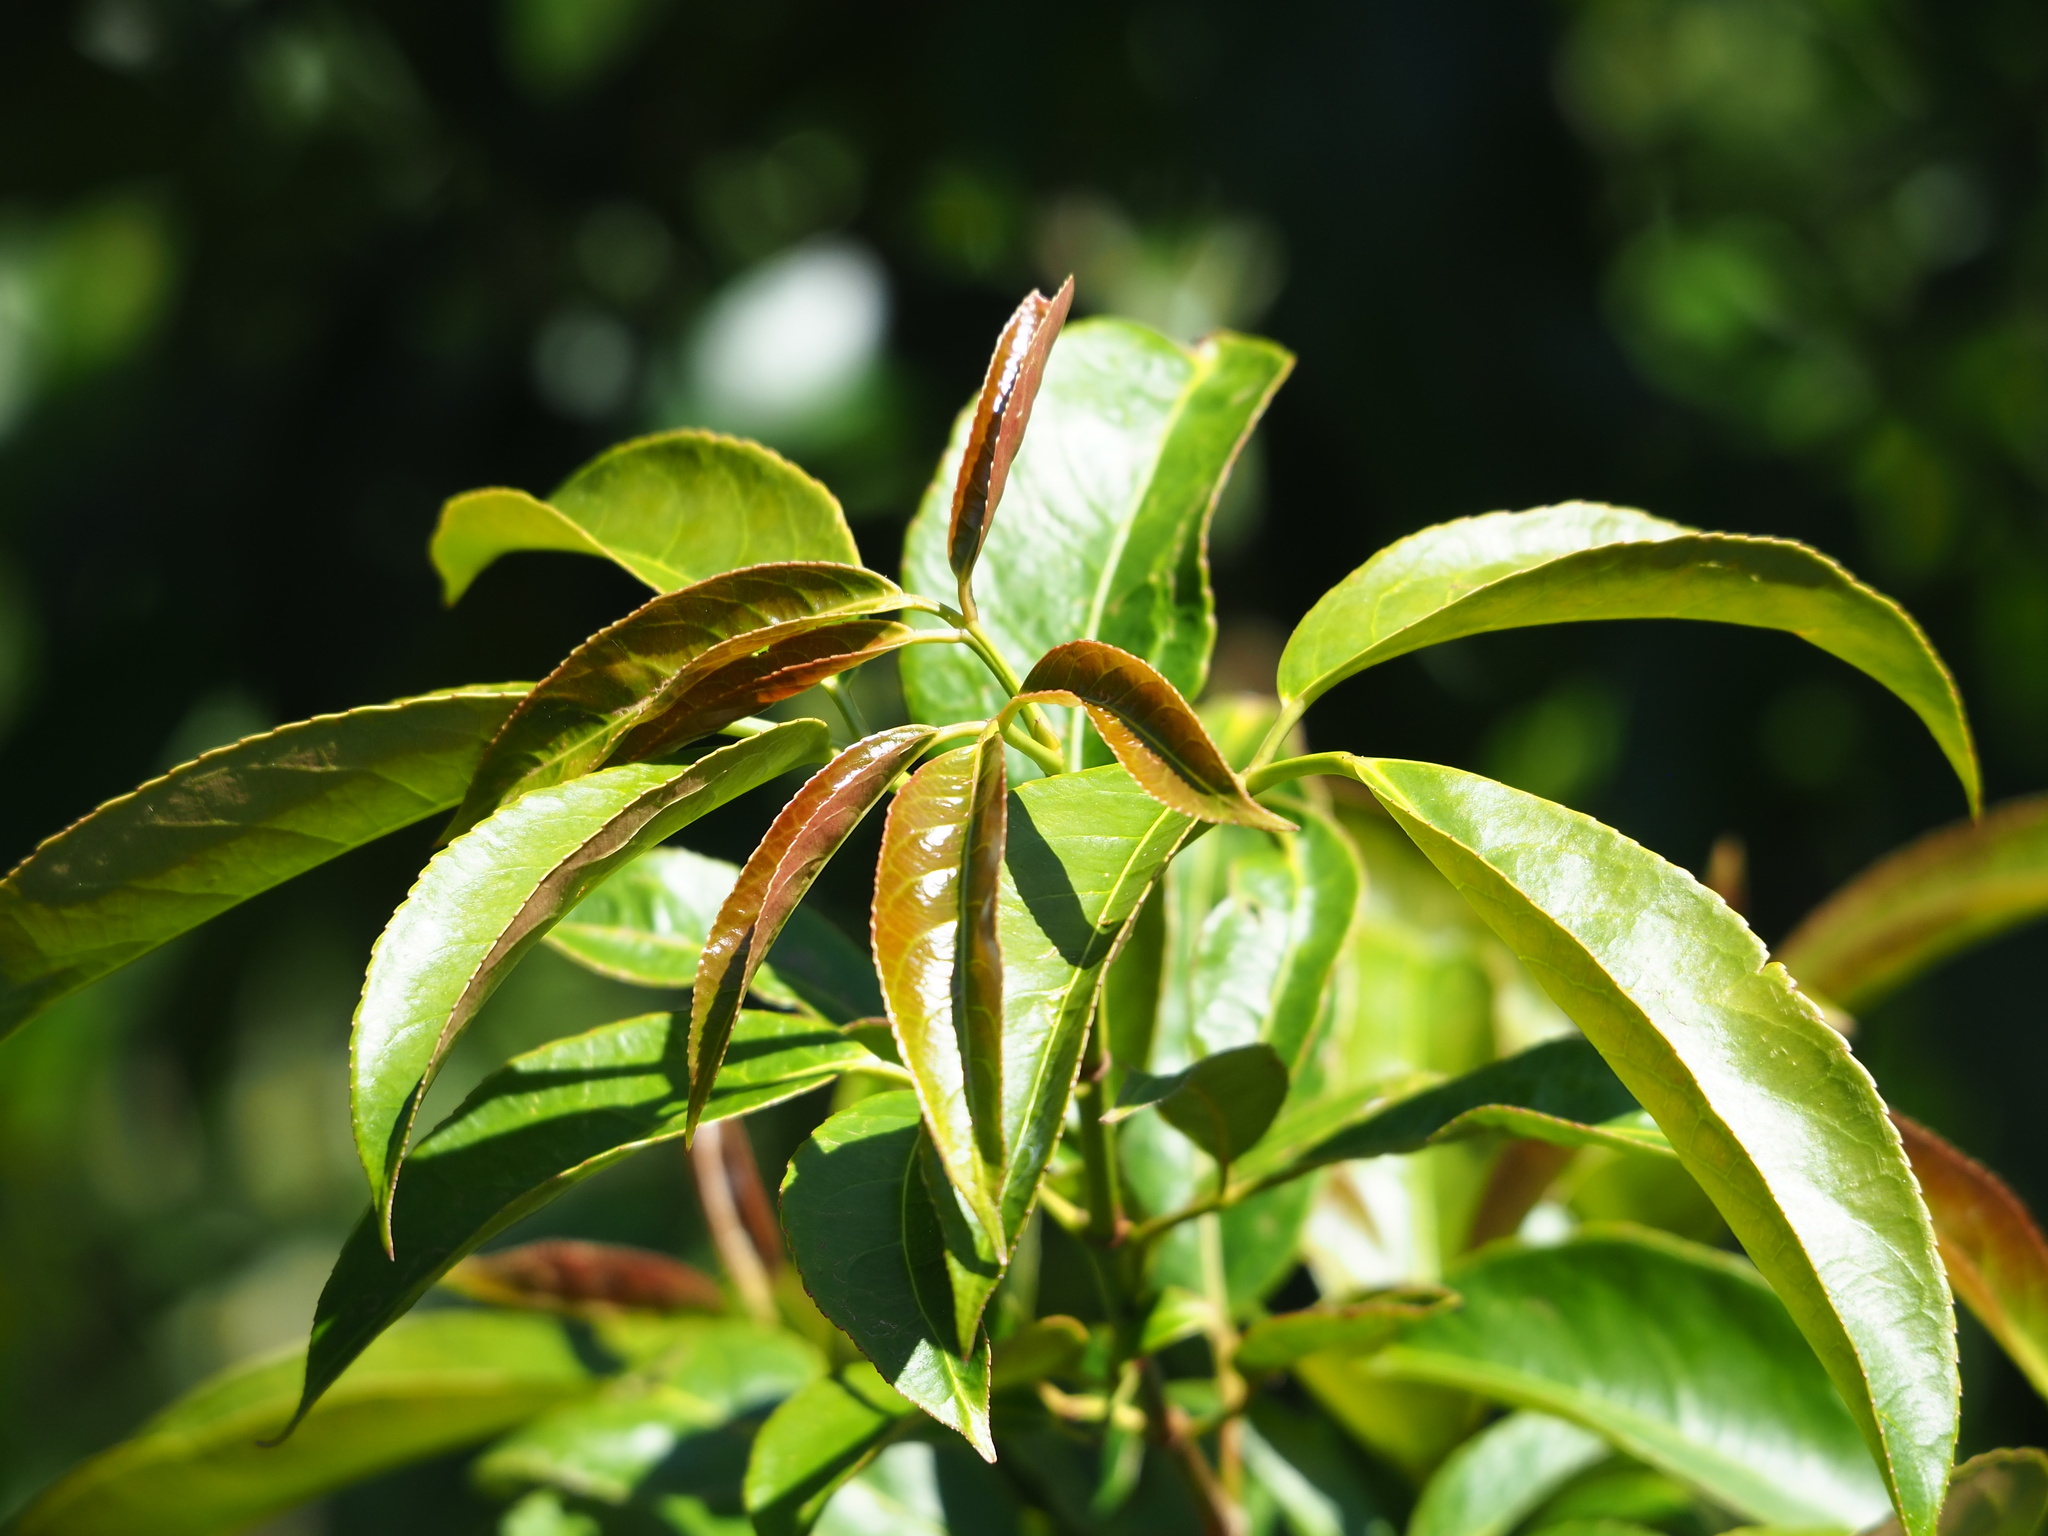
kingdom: Plantae
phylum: Tracheophyta
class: Magnoliopsida
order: Crossosomatales
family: Staphyleaceae
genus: Turpinia
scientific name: Turpinia formosana
